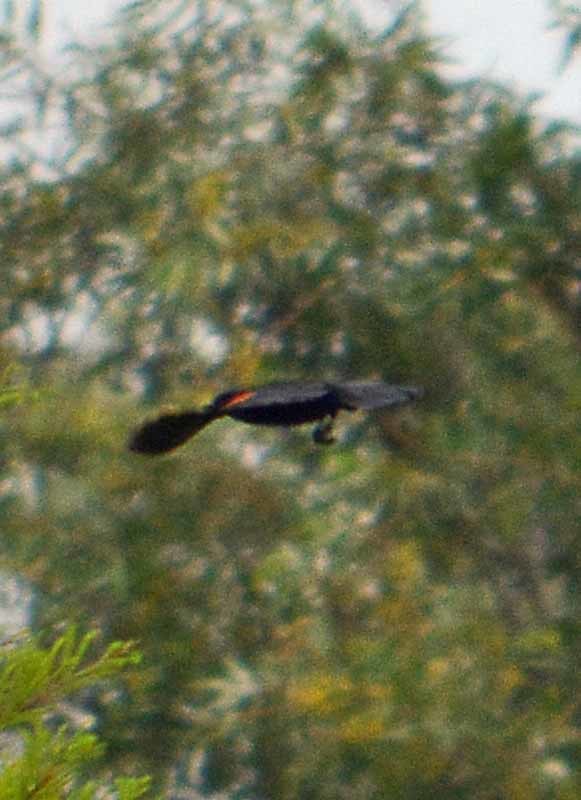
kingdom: Animalia
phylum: Chordata
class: Aves
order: Passeriformes
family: Icteridae
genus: Agelaius
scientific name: Agelaius phoeniceus
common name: Red-winged blackbird
